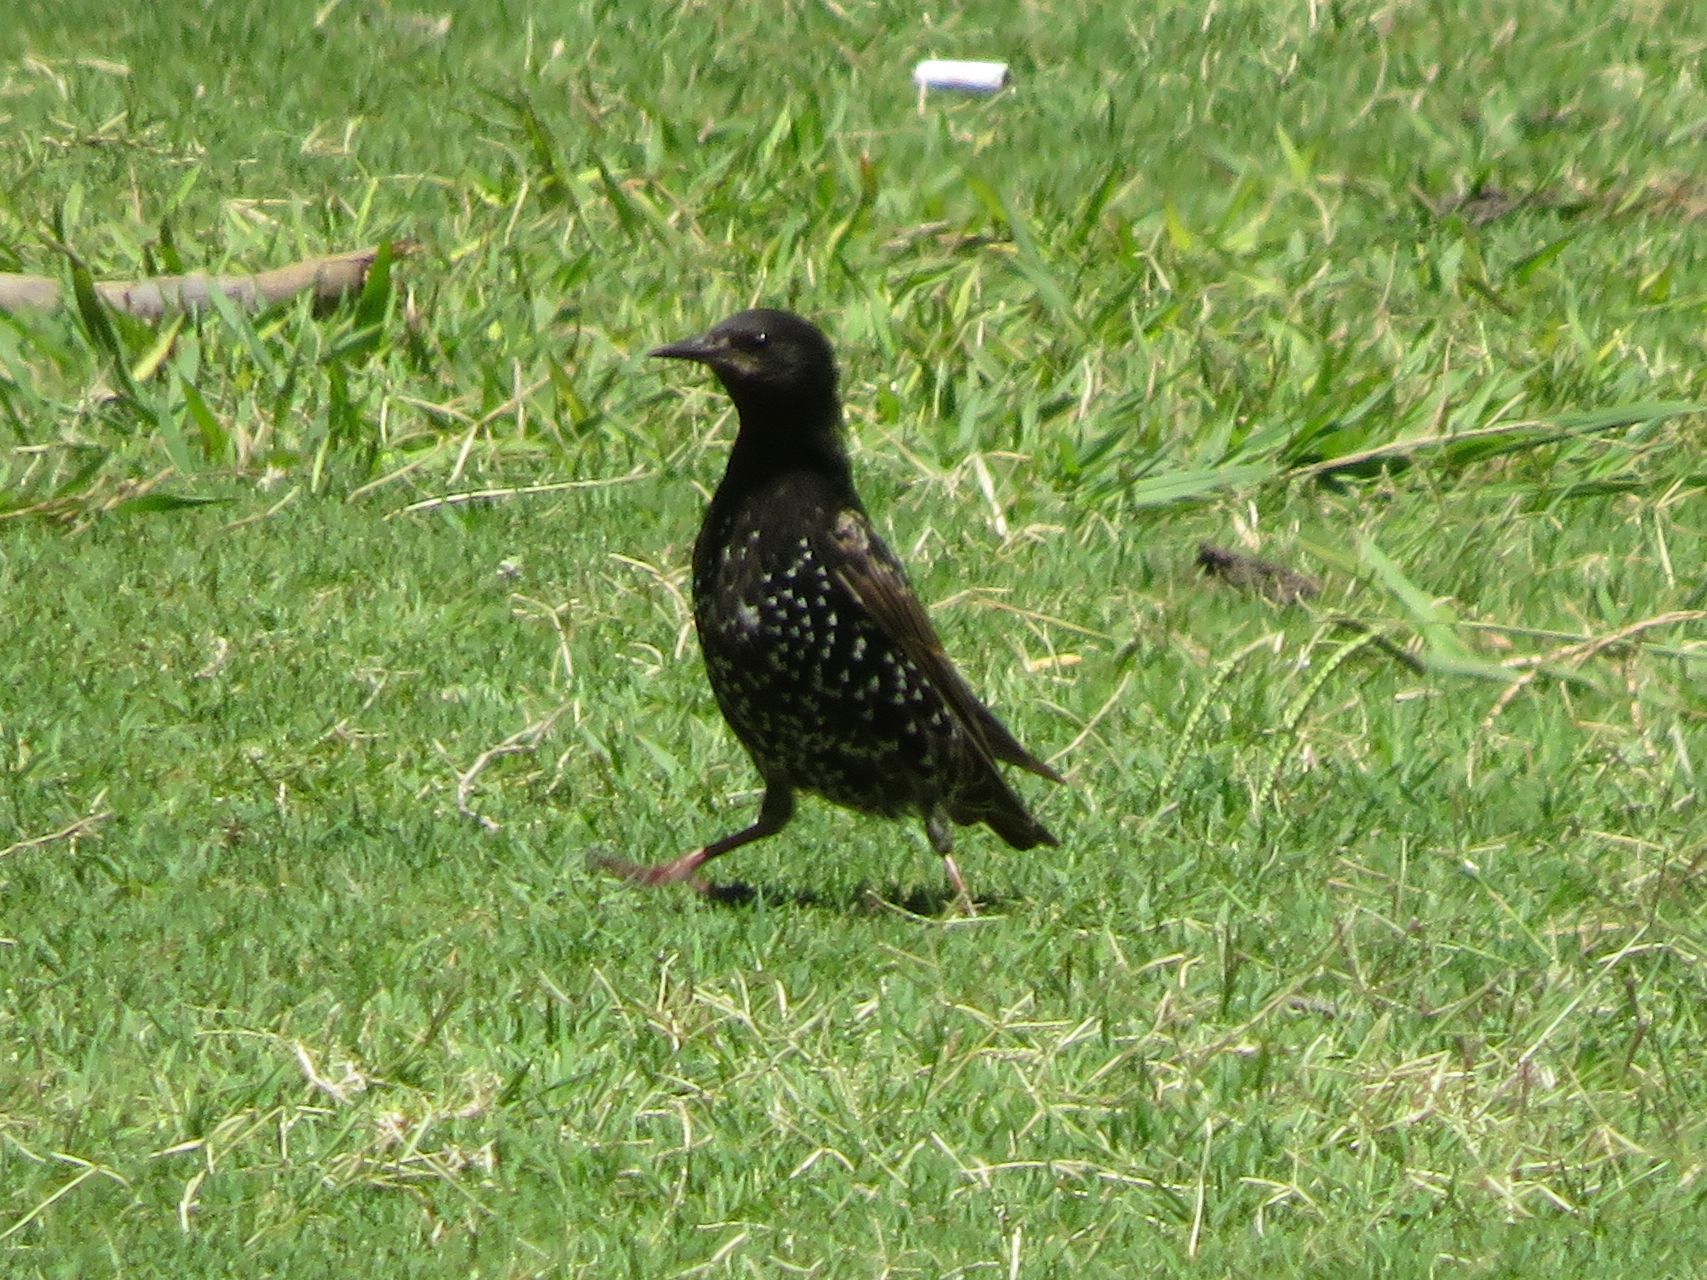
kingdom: Animalia
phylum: Chordata
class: Aves
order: Passeriformes
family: Sturnidae
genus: Sturnus
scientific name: Sturnus vulgaris
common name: Common starling
